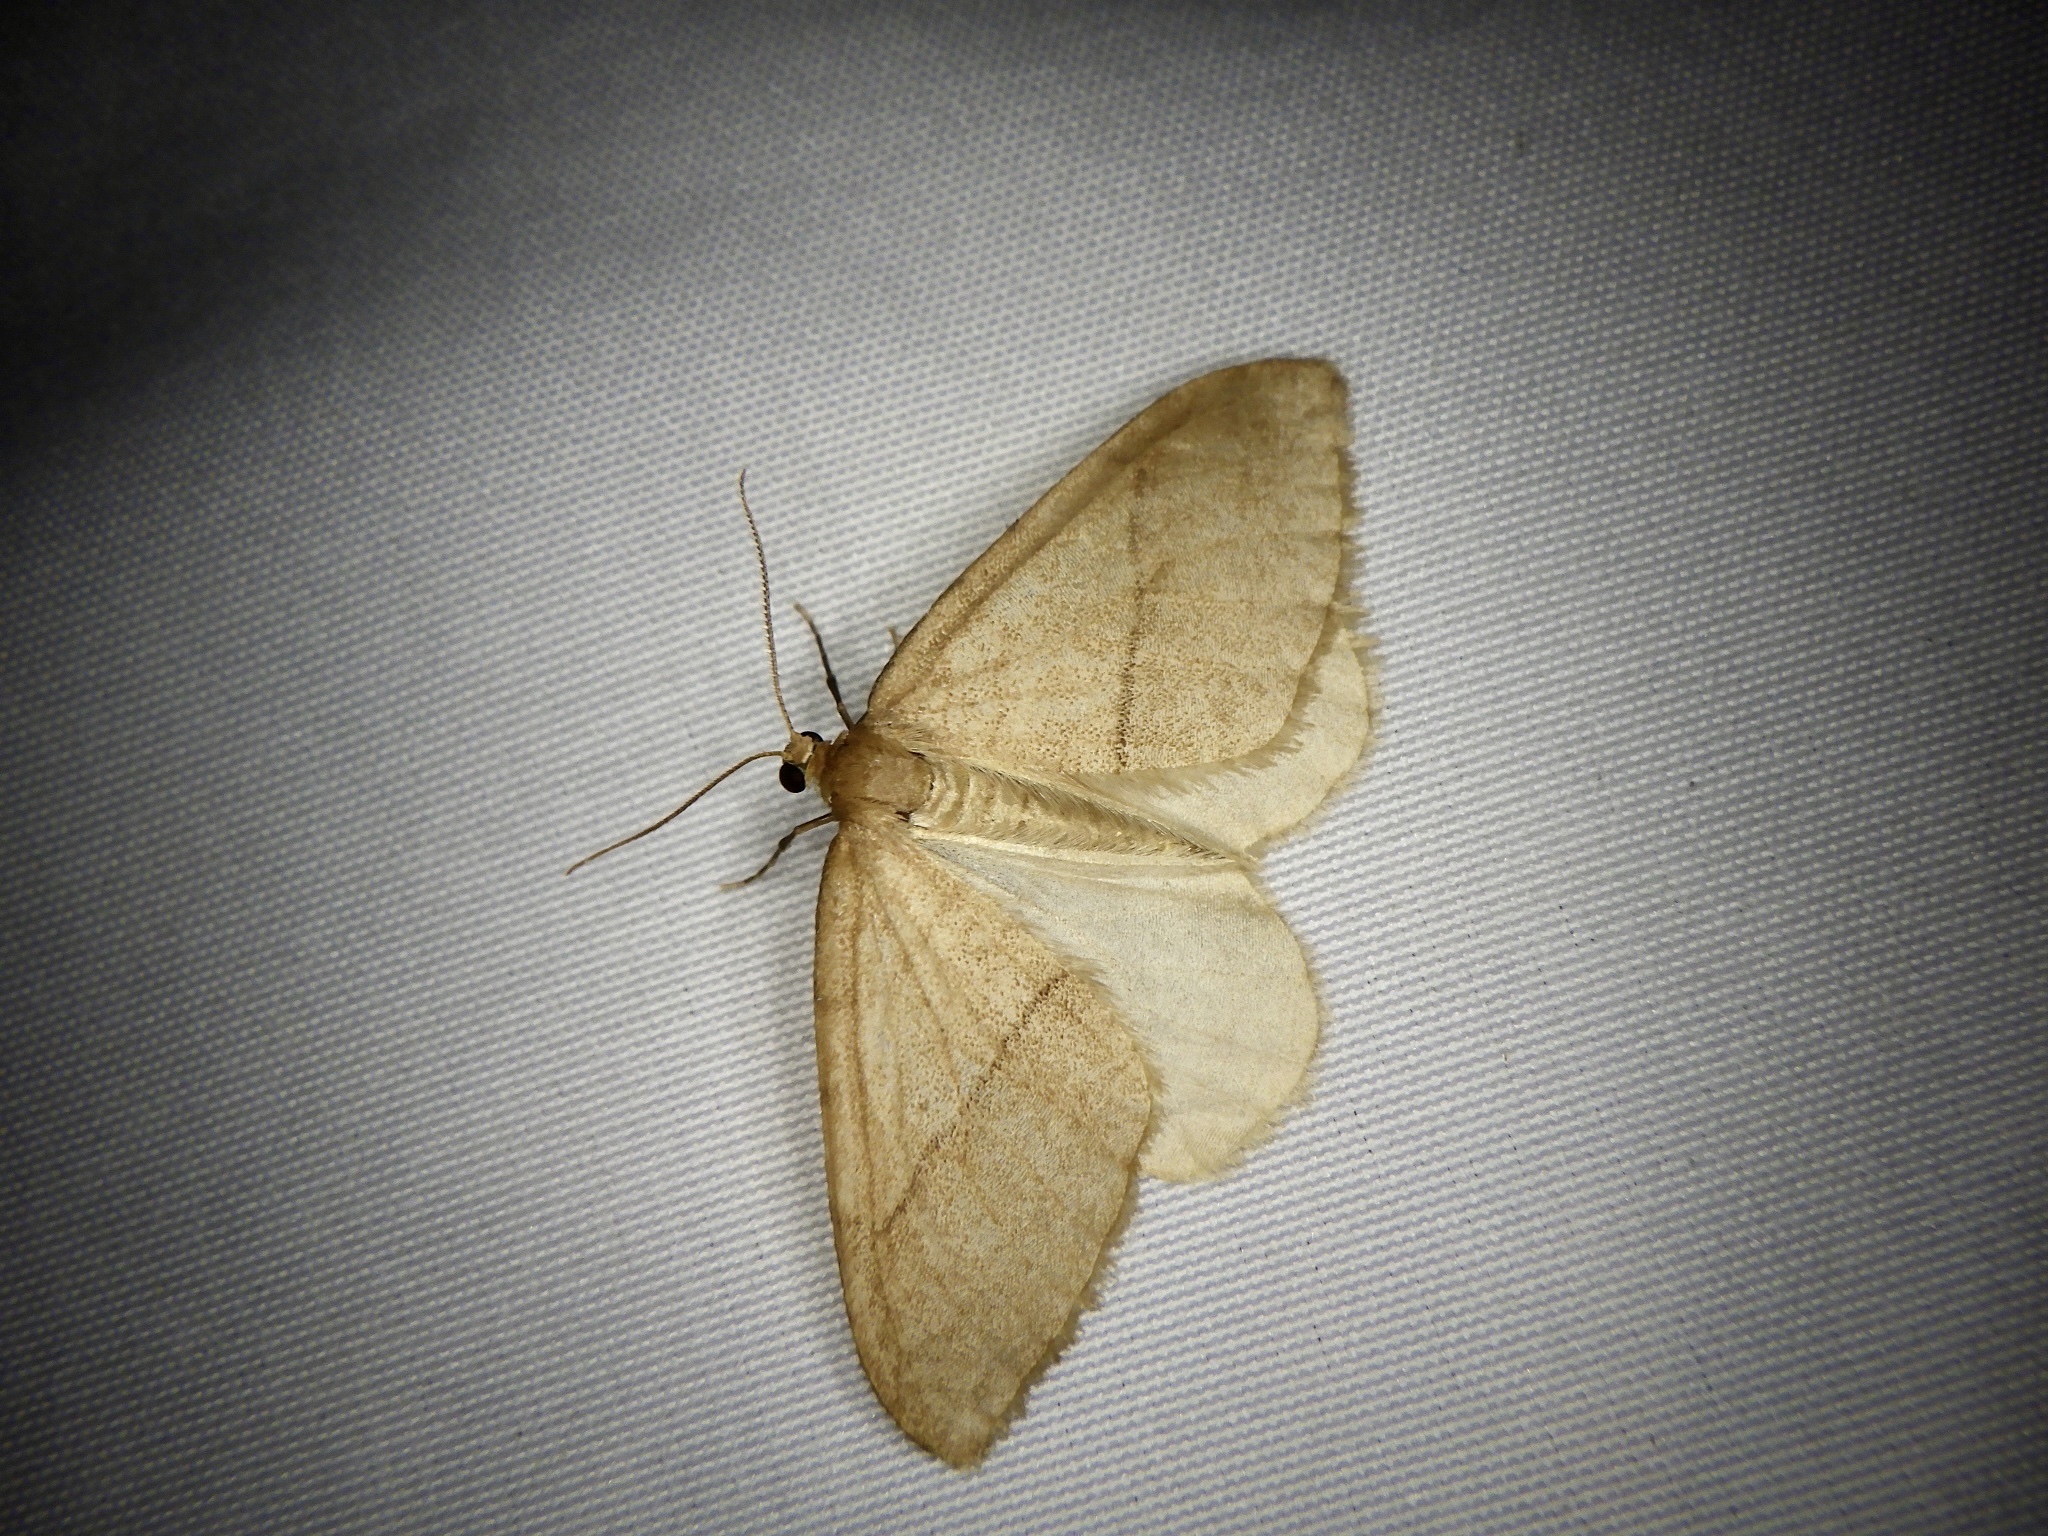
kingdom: Animalia
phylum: Arthropoda
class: Insecta
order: Lepidoptera
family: Geometridae
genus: Nothoporinia
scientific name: Nothoporinia mediolineata
